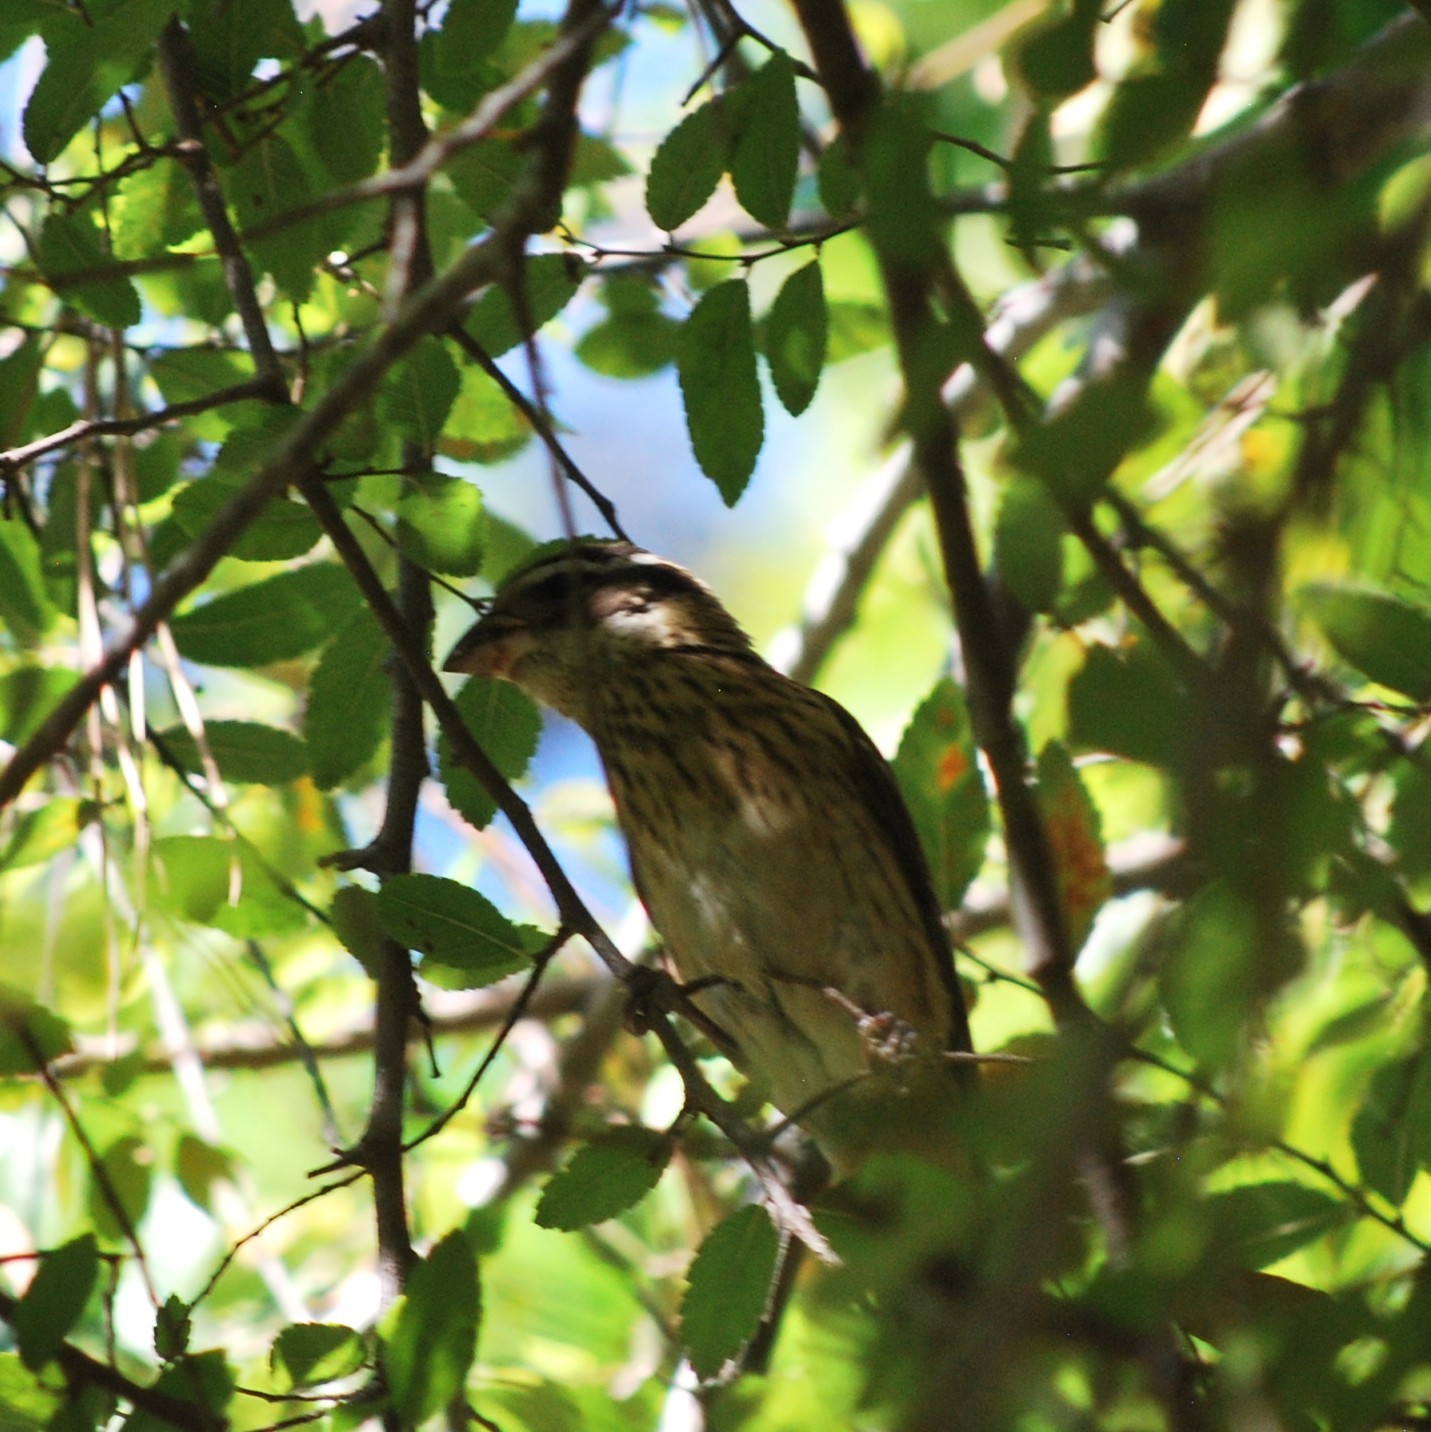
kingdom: Animalia
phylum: Chordata
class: Aves
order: Passeriformes
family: Cardinalidae
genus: Pheucticus
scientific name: Pheucticus ludovicianus
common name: Rose-breasted grosbeak
